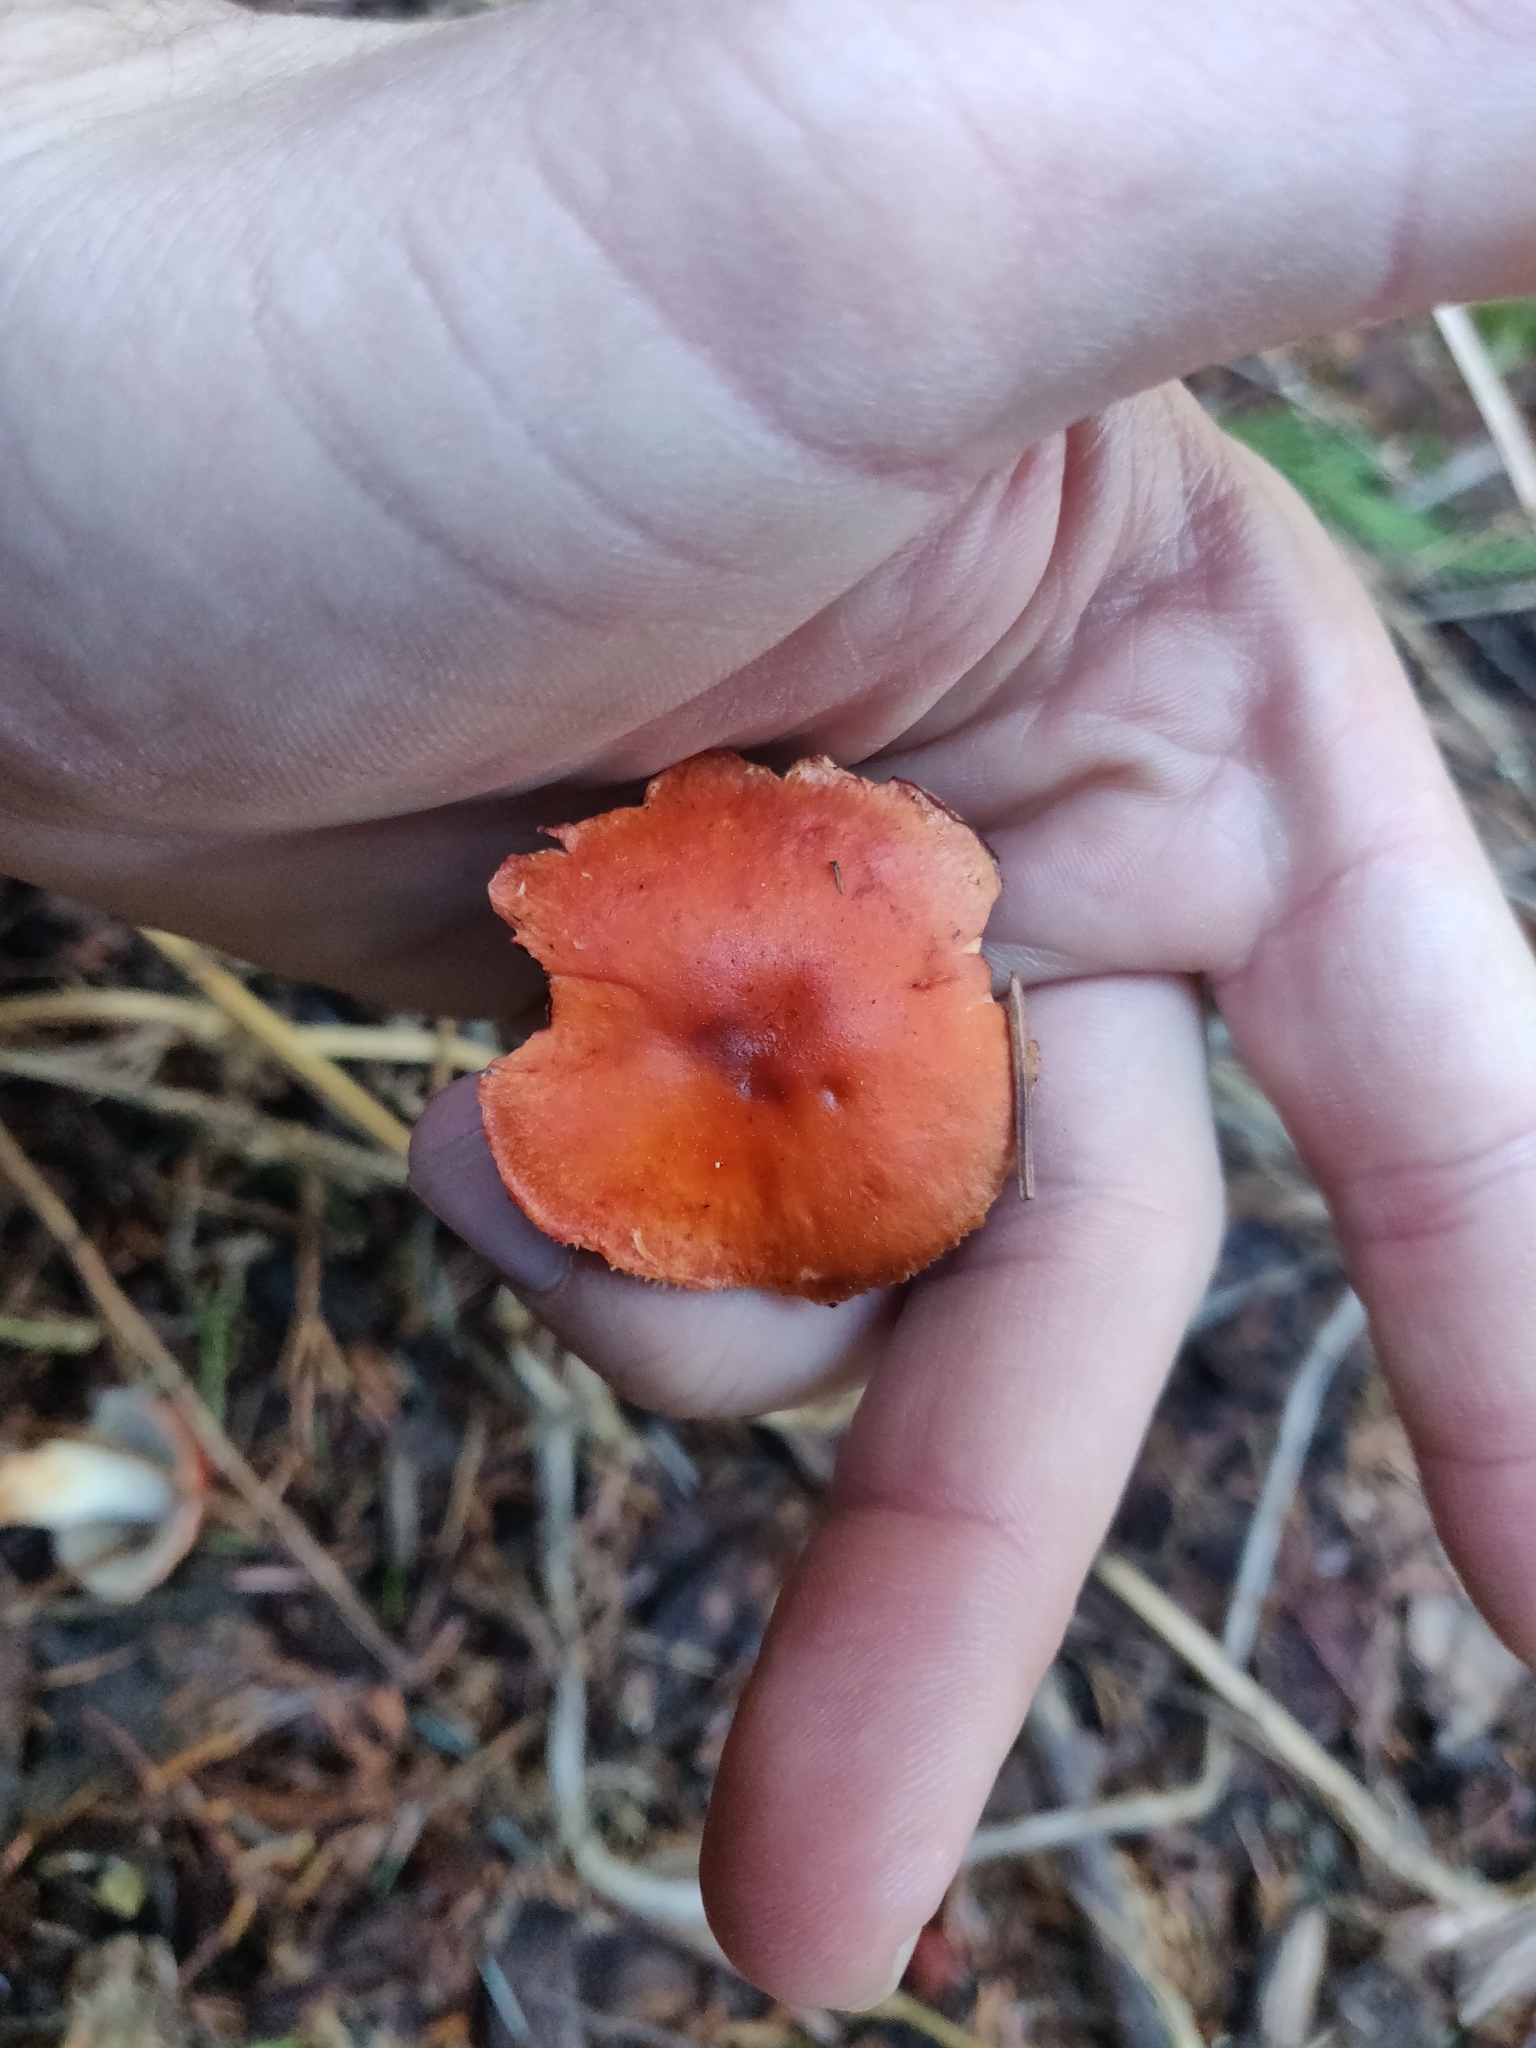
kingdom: Fungi
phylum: Basidiomycota
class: Agaricomycetes
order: Agaricales
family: Strophariaceae
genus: Leratiomyces
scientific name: Leratiomyces ceres
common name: Redlead roundhead
